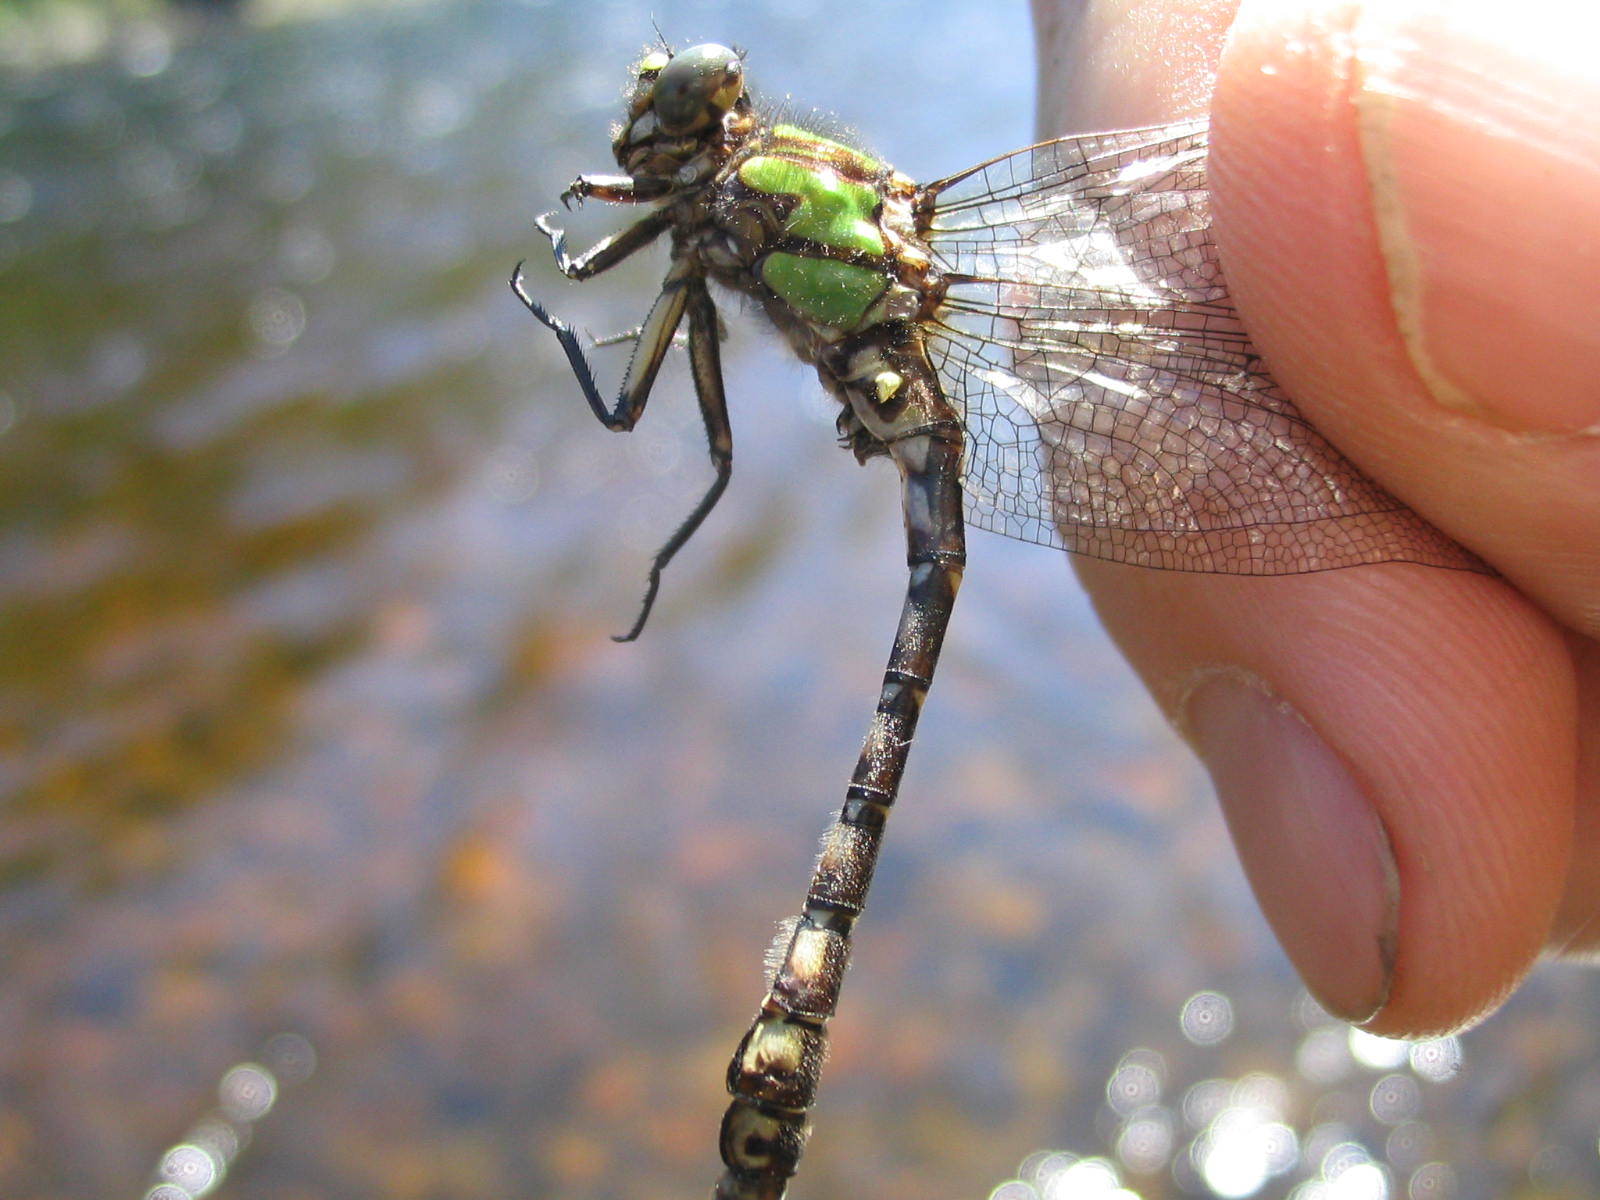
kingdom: Animalia
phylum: Arthropoda
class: Insecta
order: Odonata
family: Gomphidae
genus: Ophiogomphus
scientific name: Ophiogomphus colubrinus
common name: Boreal snaketail
